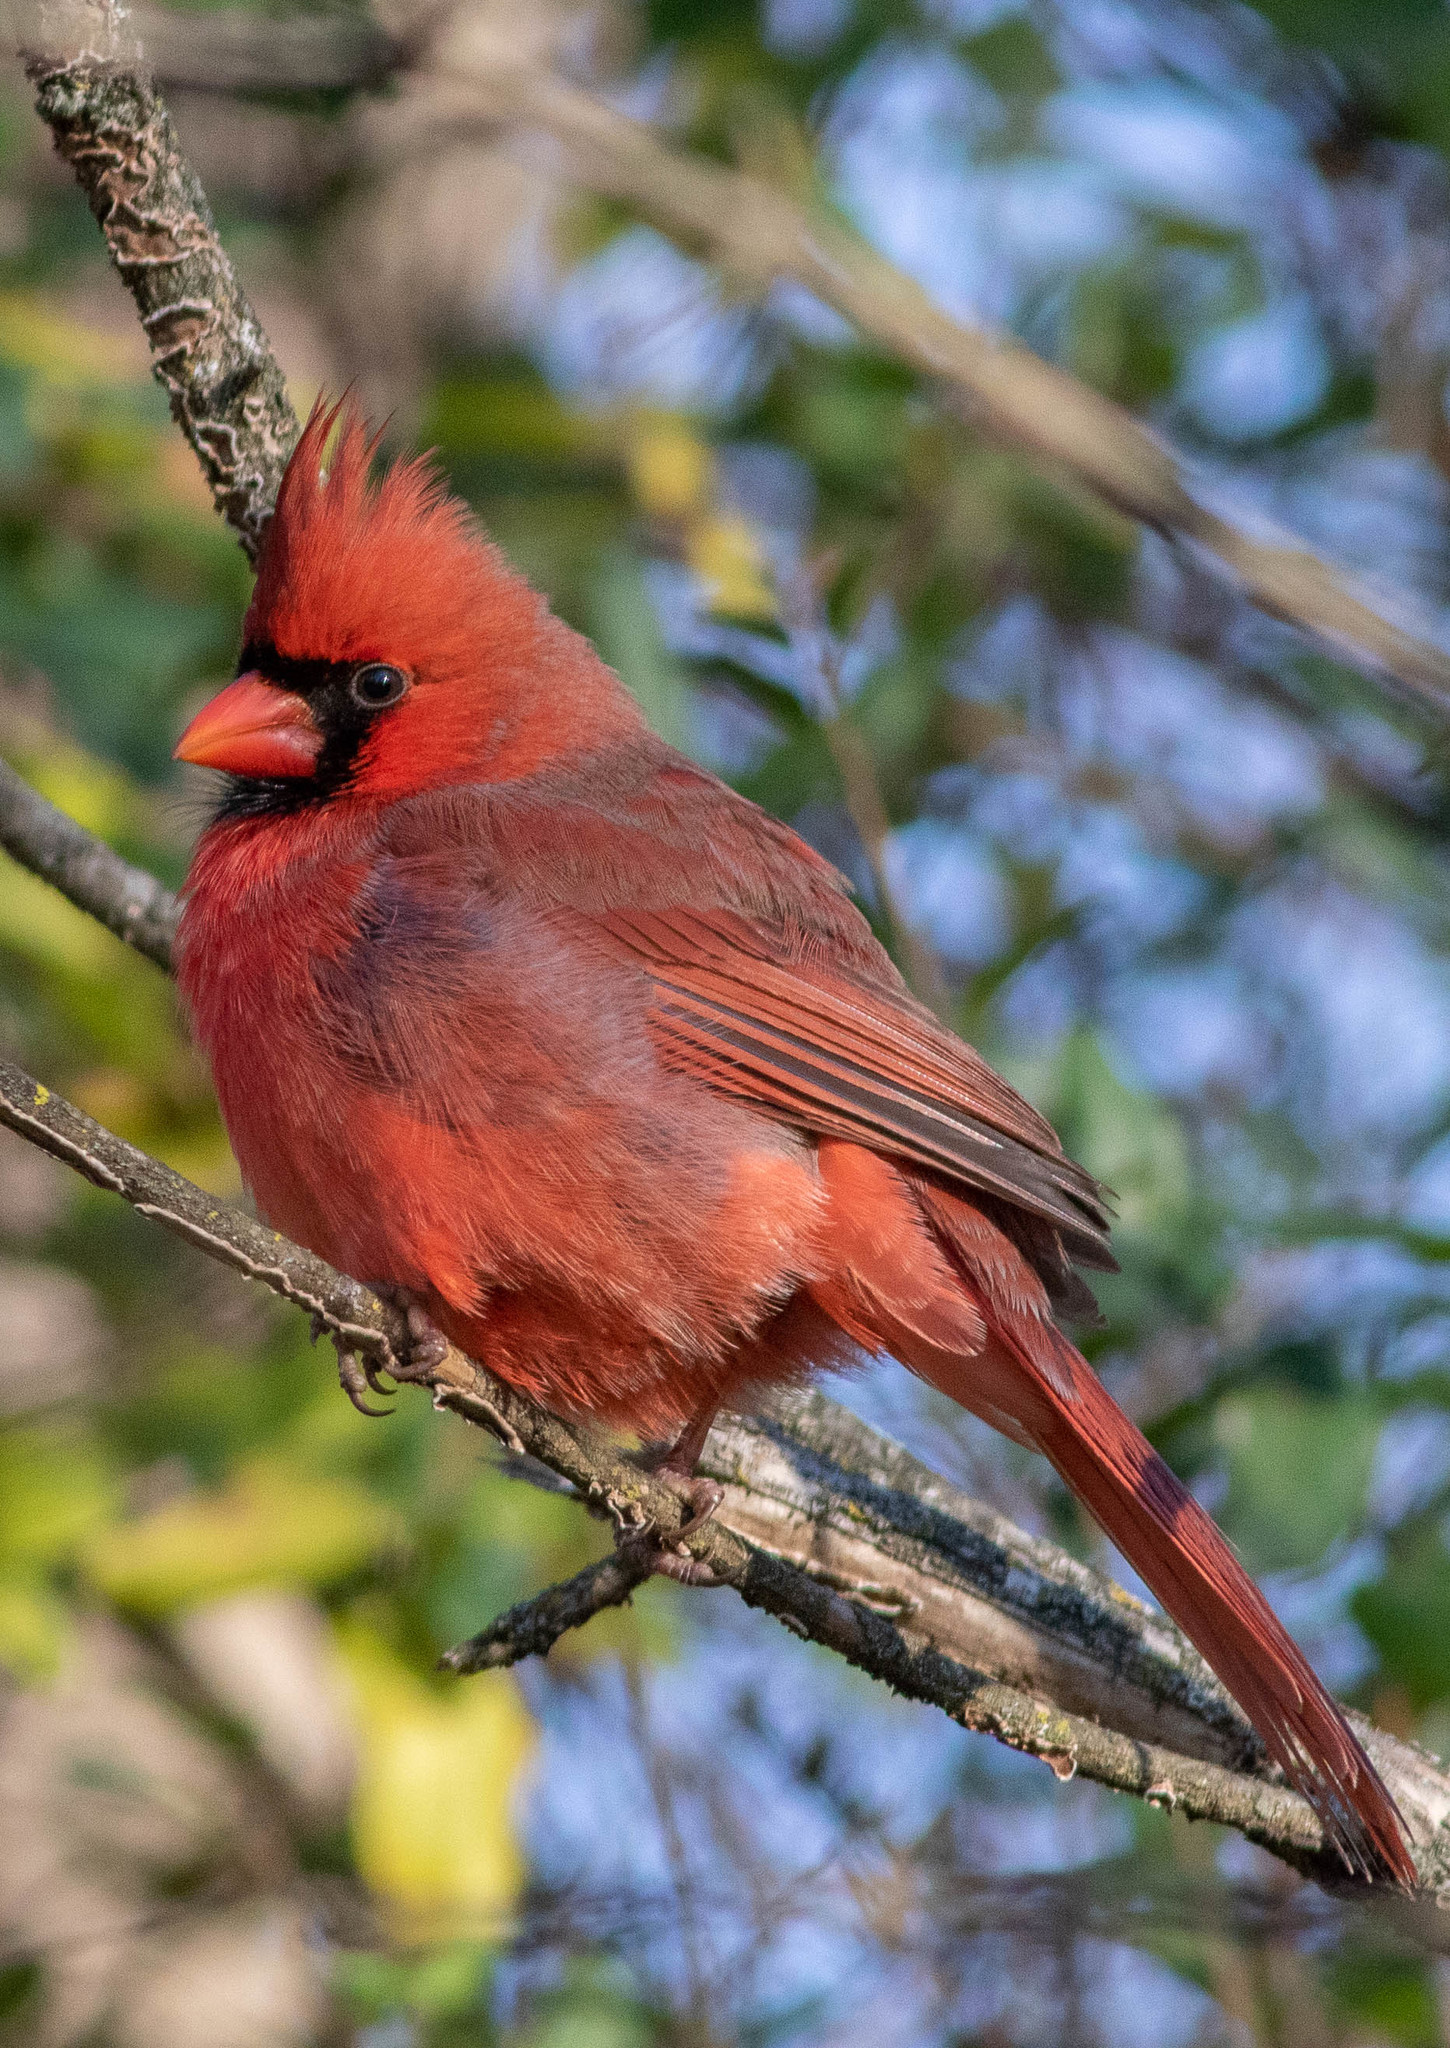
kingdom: Animalia
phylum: Chordata
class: Aves
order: Passeriformes
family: Cardinalidae
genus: Cardinalis
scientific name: Cardinalis cardinalis
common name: Northern cardinal
